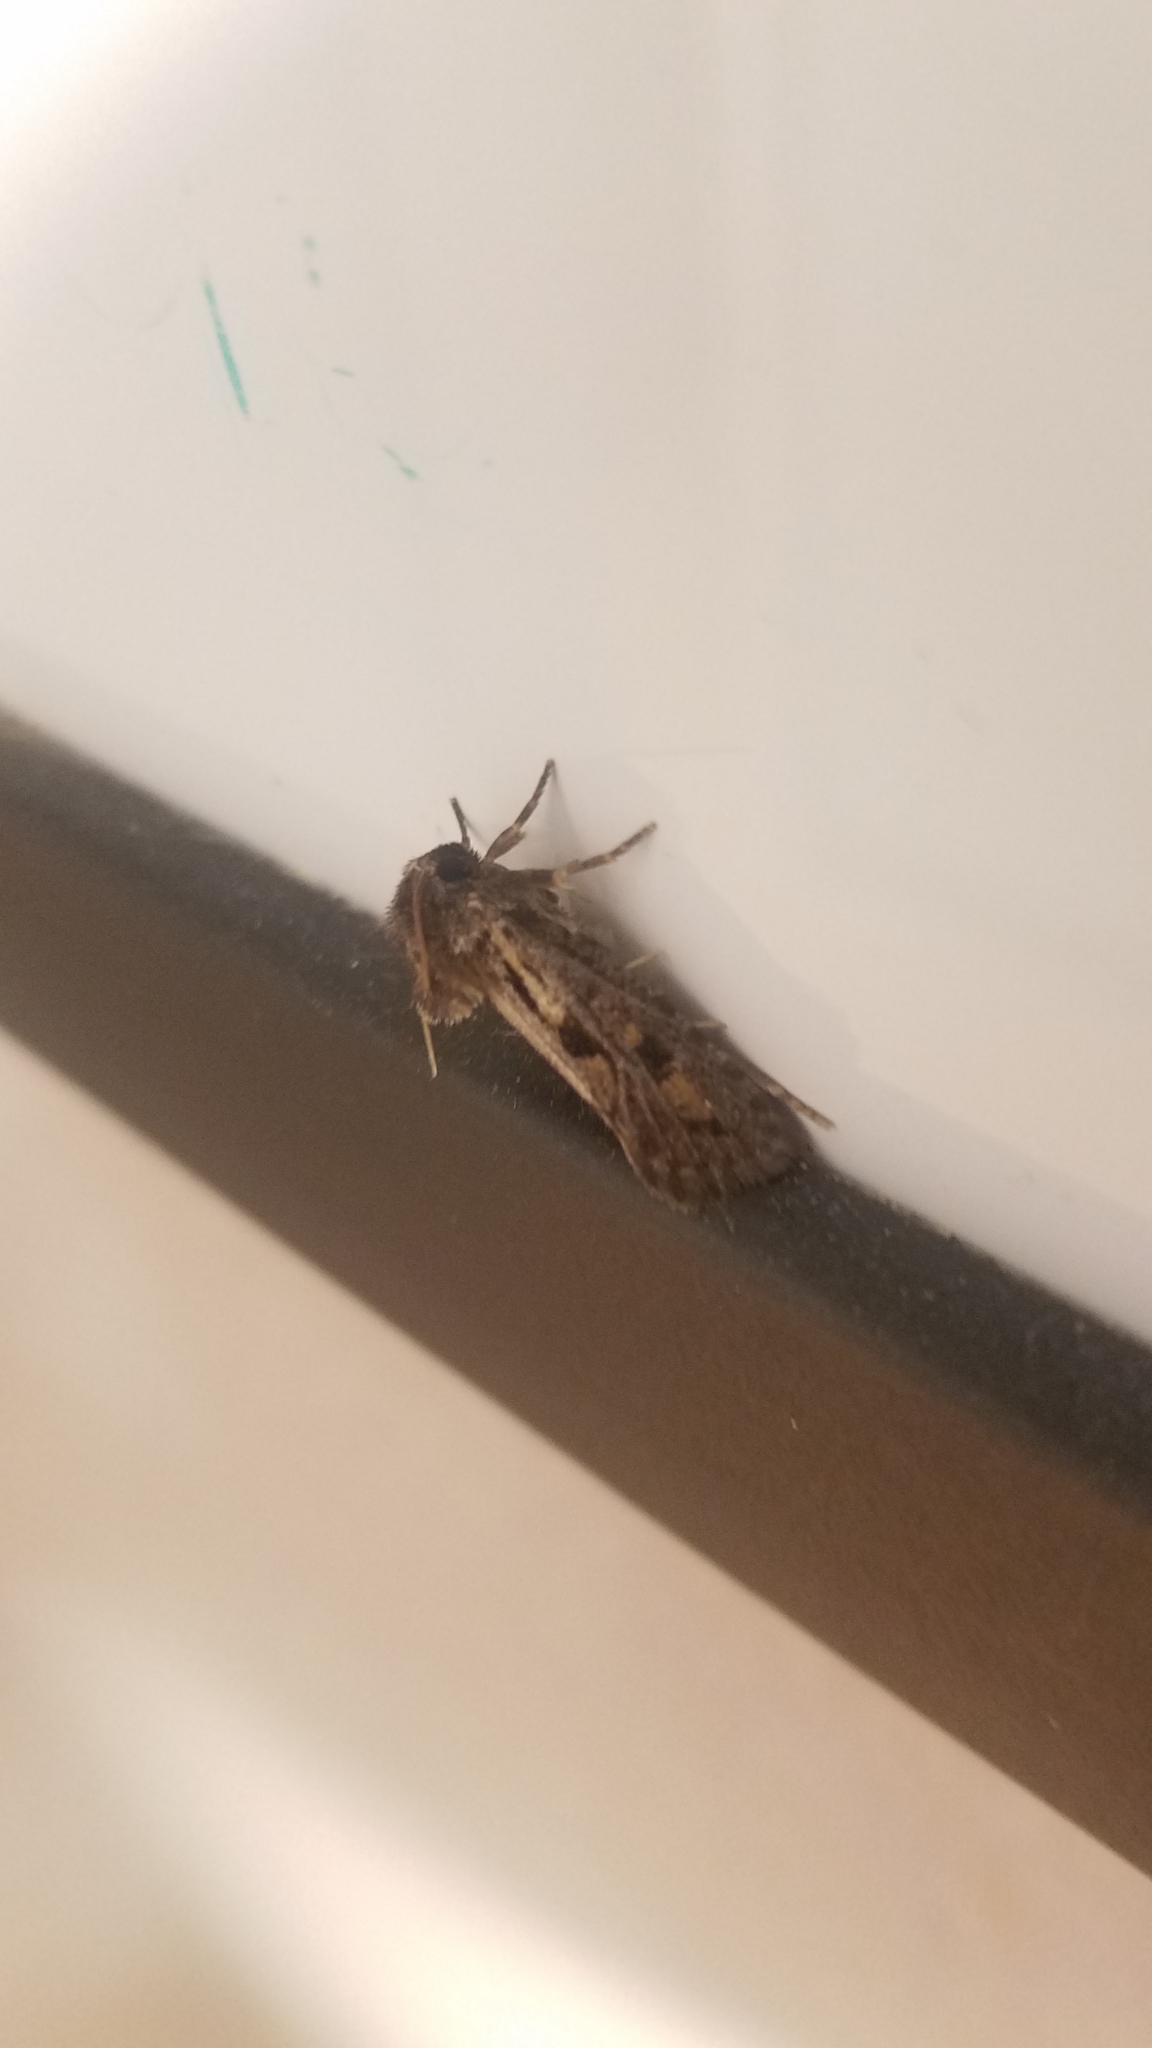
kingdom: Animalia
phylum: Arthropoda
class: Insecta
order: Lepidoptera
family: Tineidae
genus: Acrolophus
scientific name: Acrolophus popeanella
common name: Clemens' grass tubeworm moth
